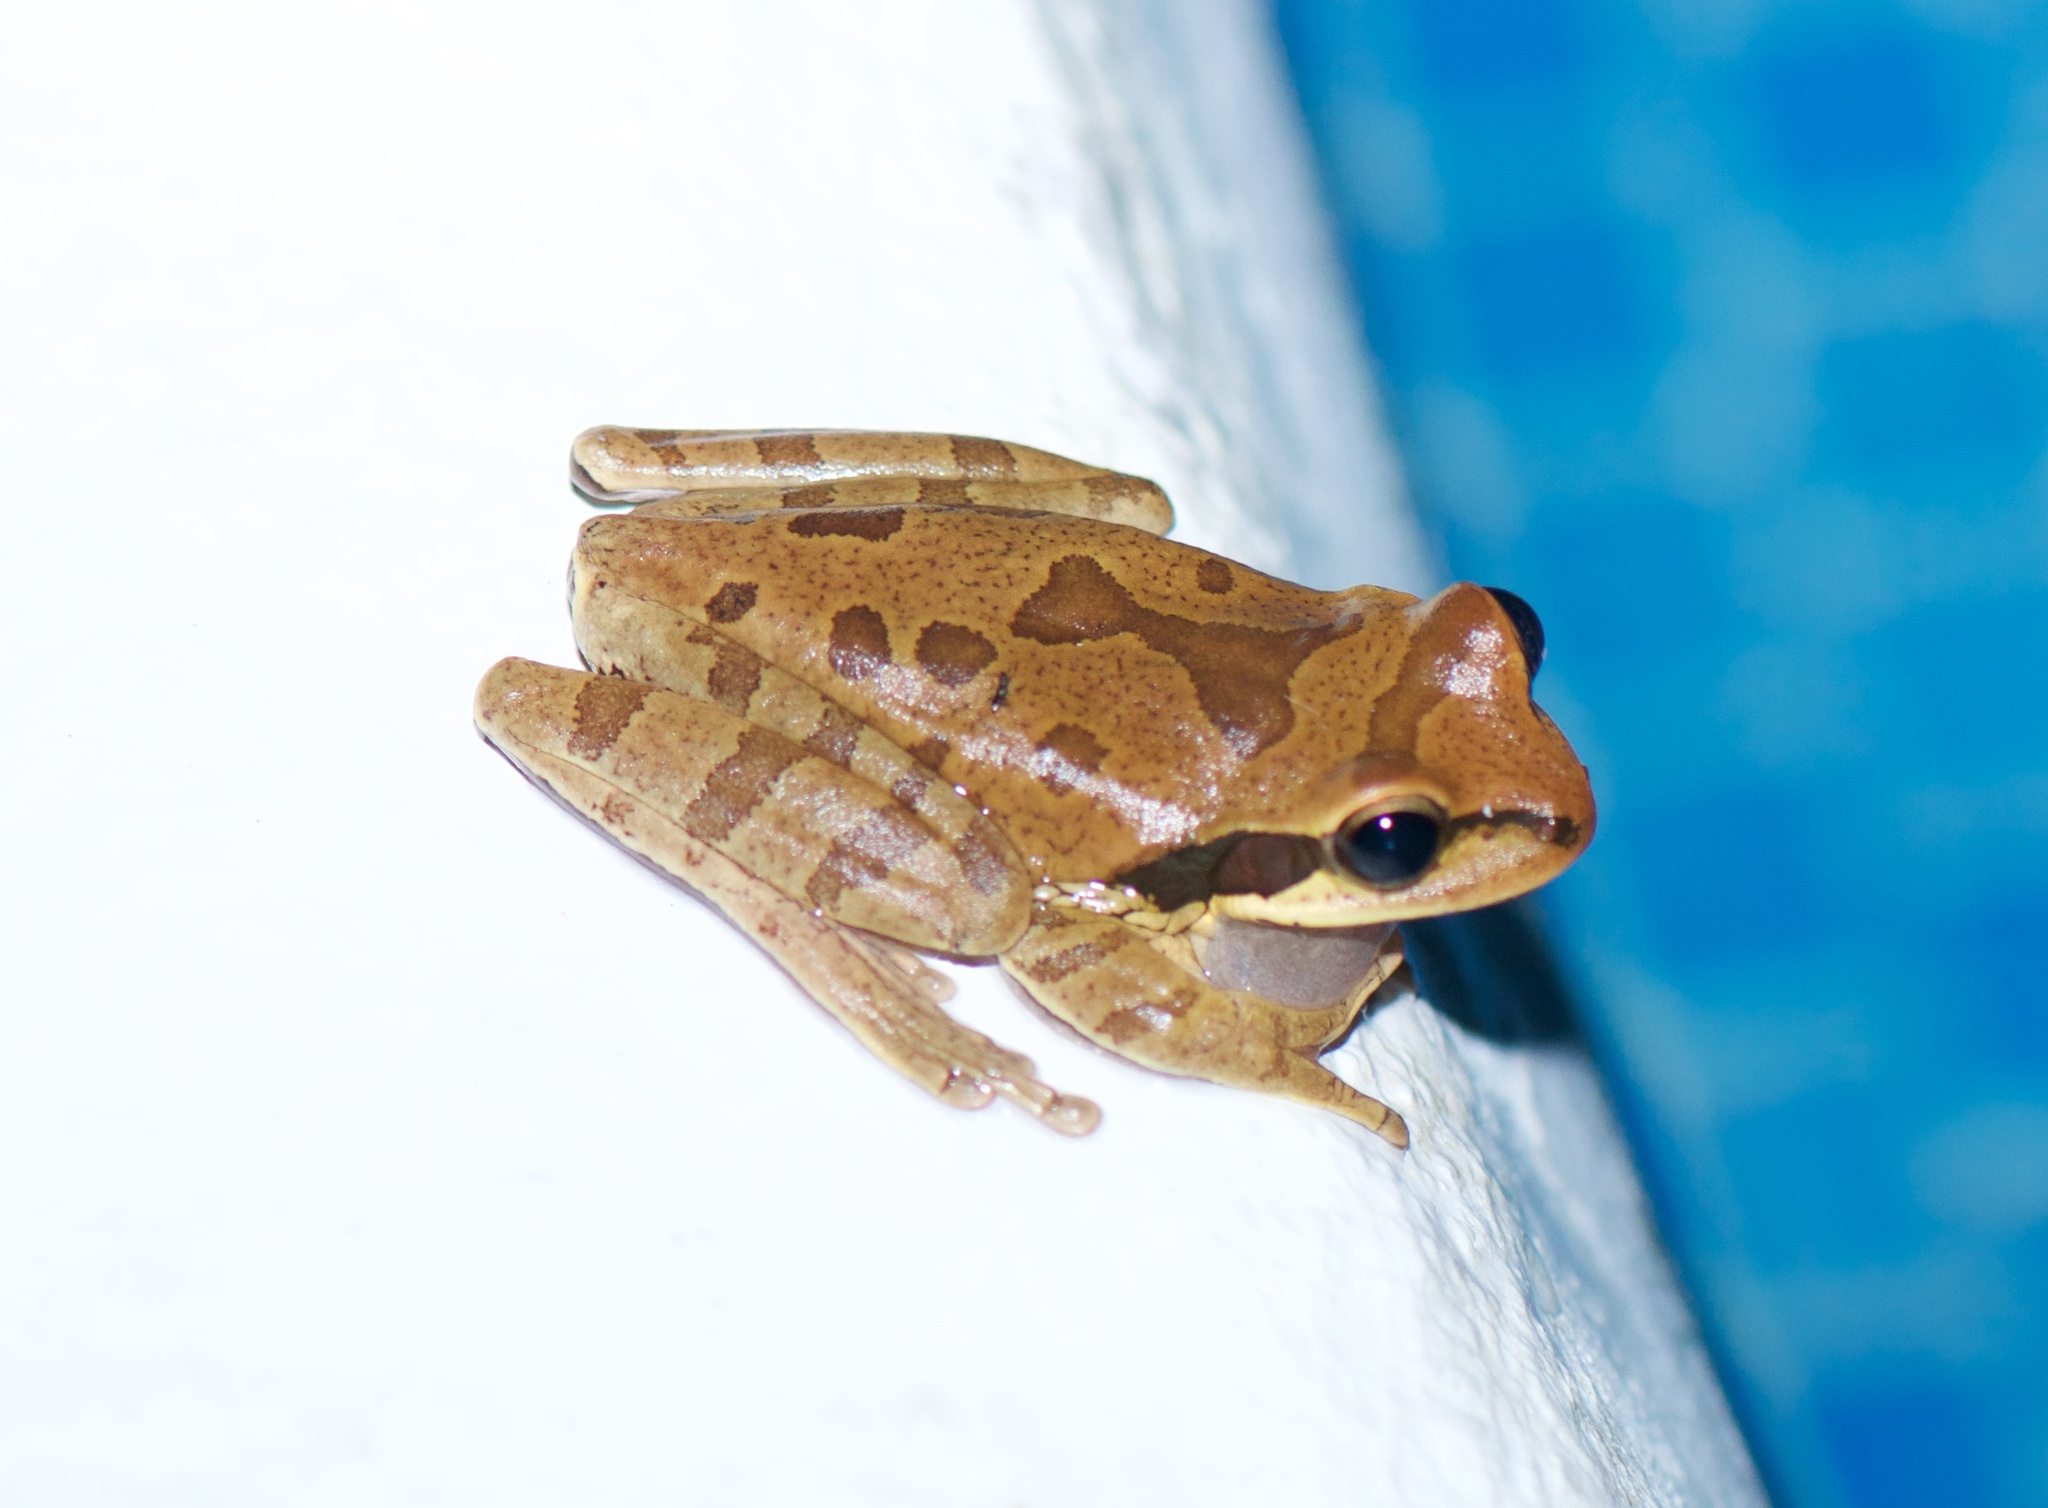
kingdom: Animalia
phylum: Chordata
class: Amphibia
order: Anura
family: Hylidae
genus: Smilisca
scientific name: Smilisca phaeota
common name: Central american smilisca
